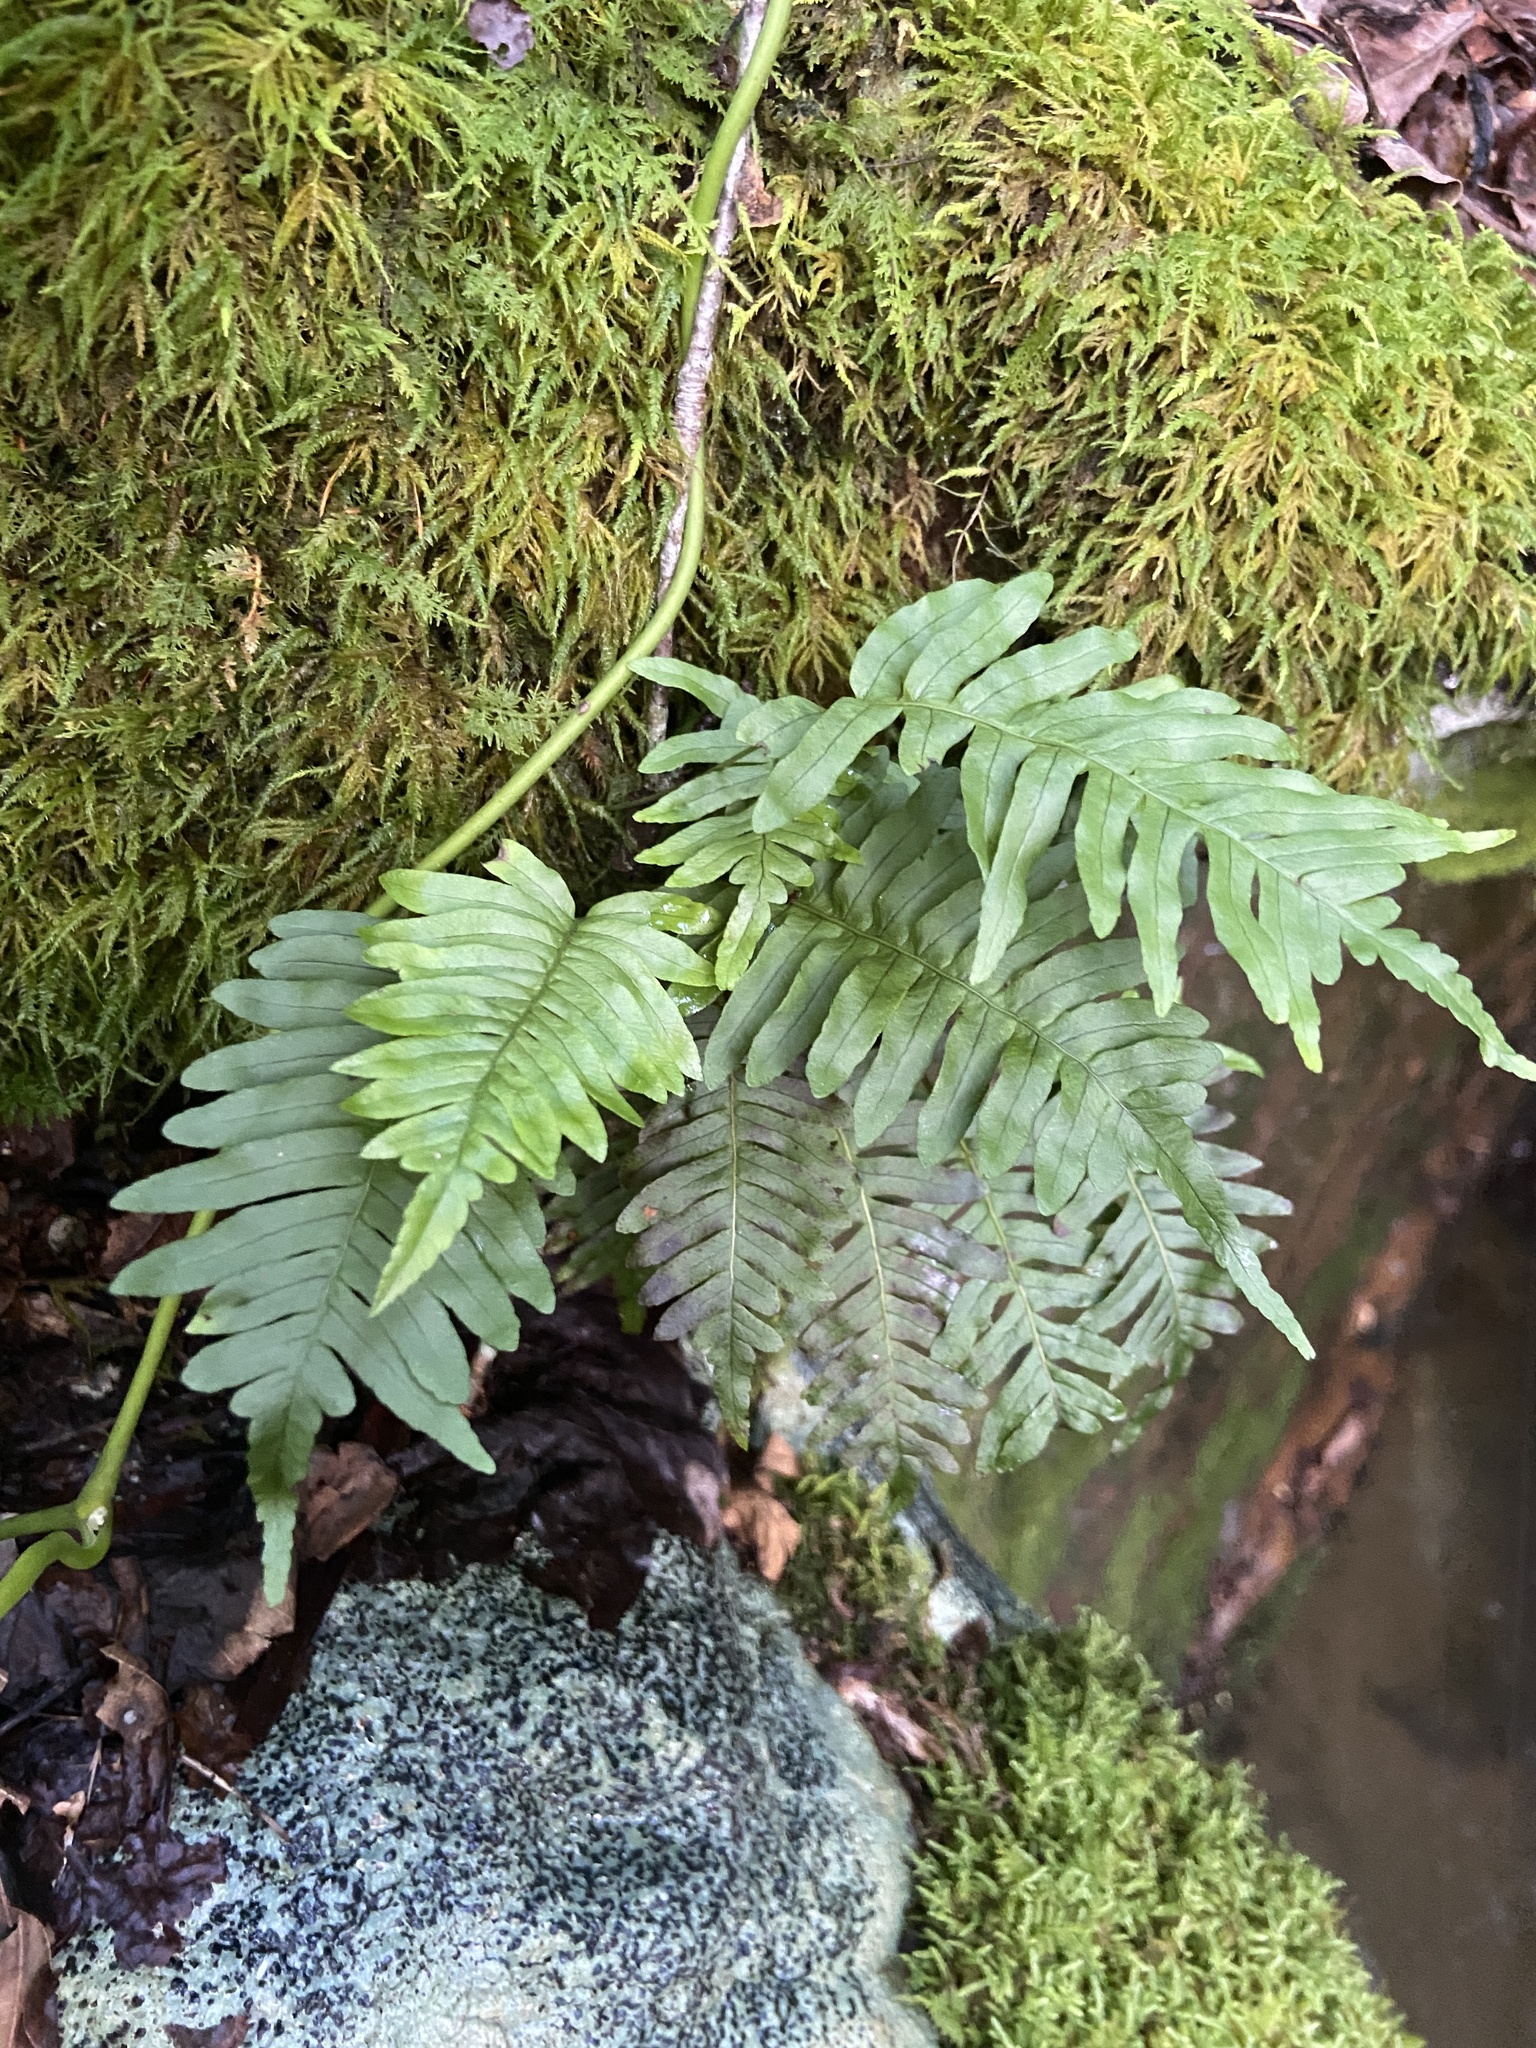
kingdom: Plantae
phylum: Tracheophyta
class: Polypodiopsida
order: Polypodiales
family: Polypodiaceae
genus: Polypodium
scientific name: Polypodium appalachianum
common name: Appalachian polypody
